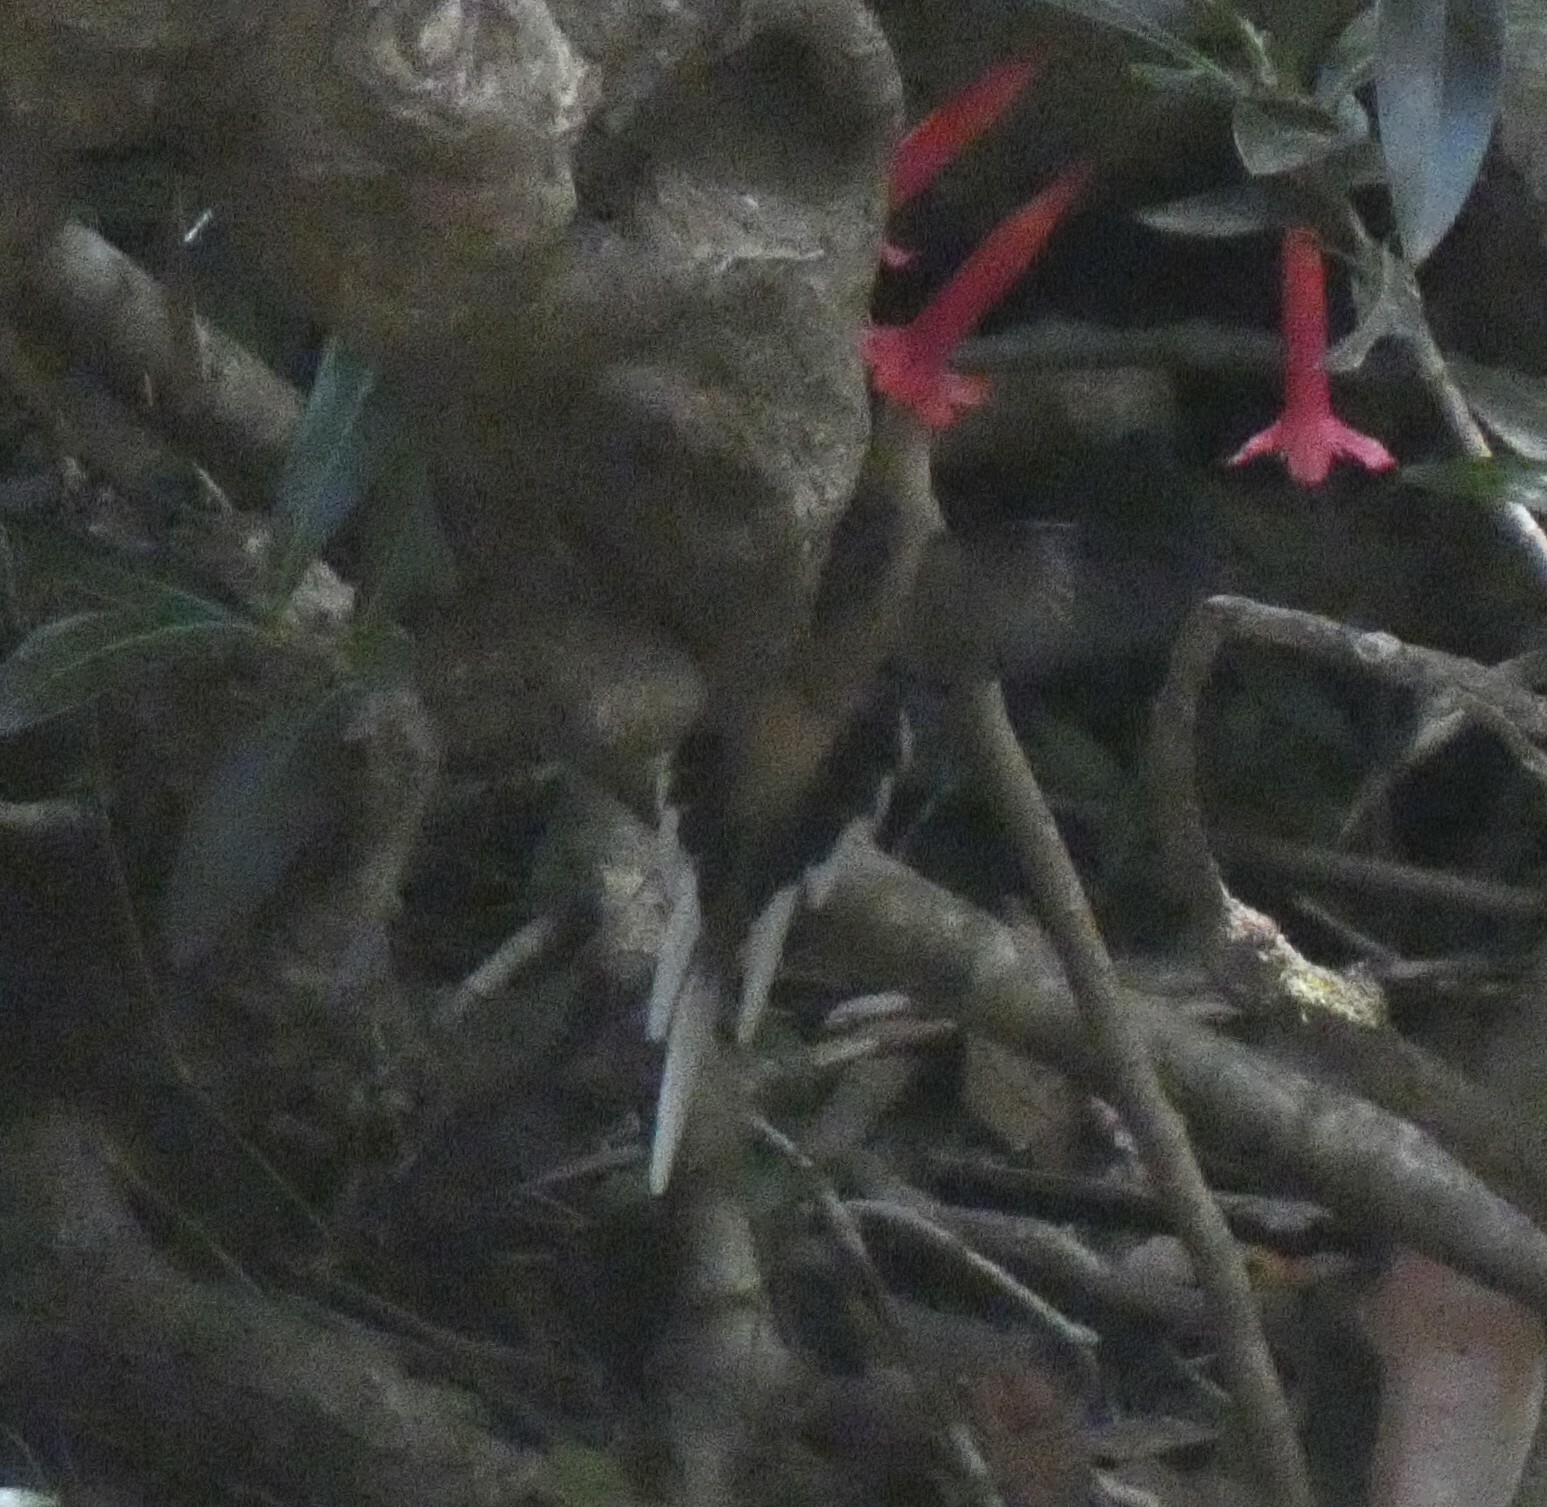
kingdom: Animalia
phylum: Chordata
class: Aves
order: Apodiformes
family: Trochilidae
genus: Phaethornis
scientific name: Phaethornis pretrei
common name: Planalto hermit
